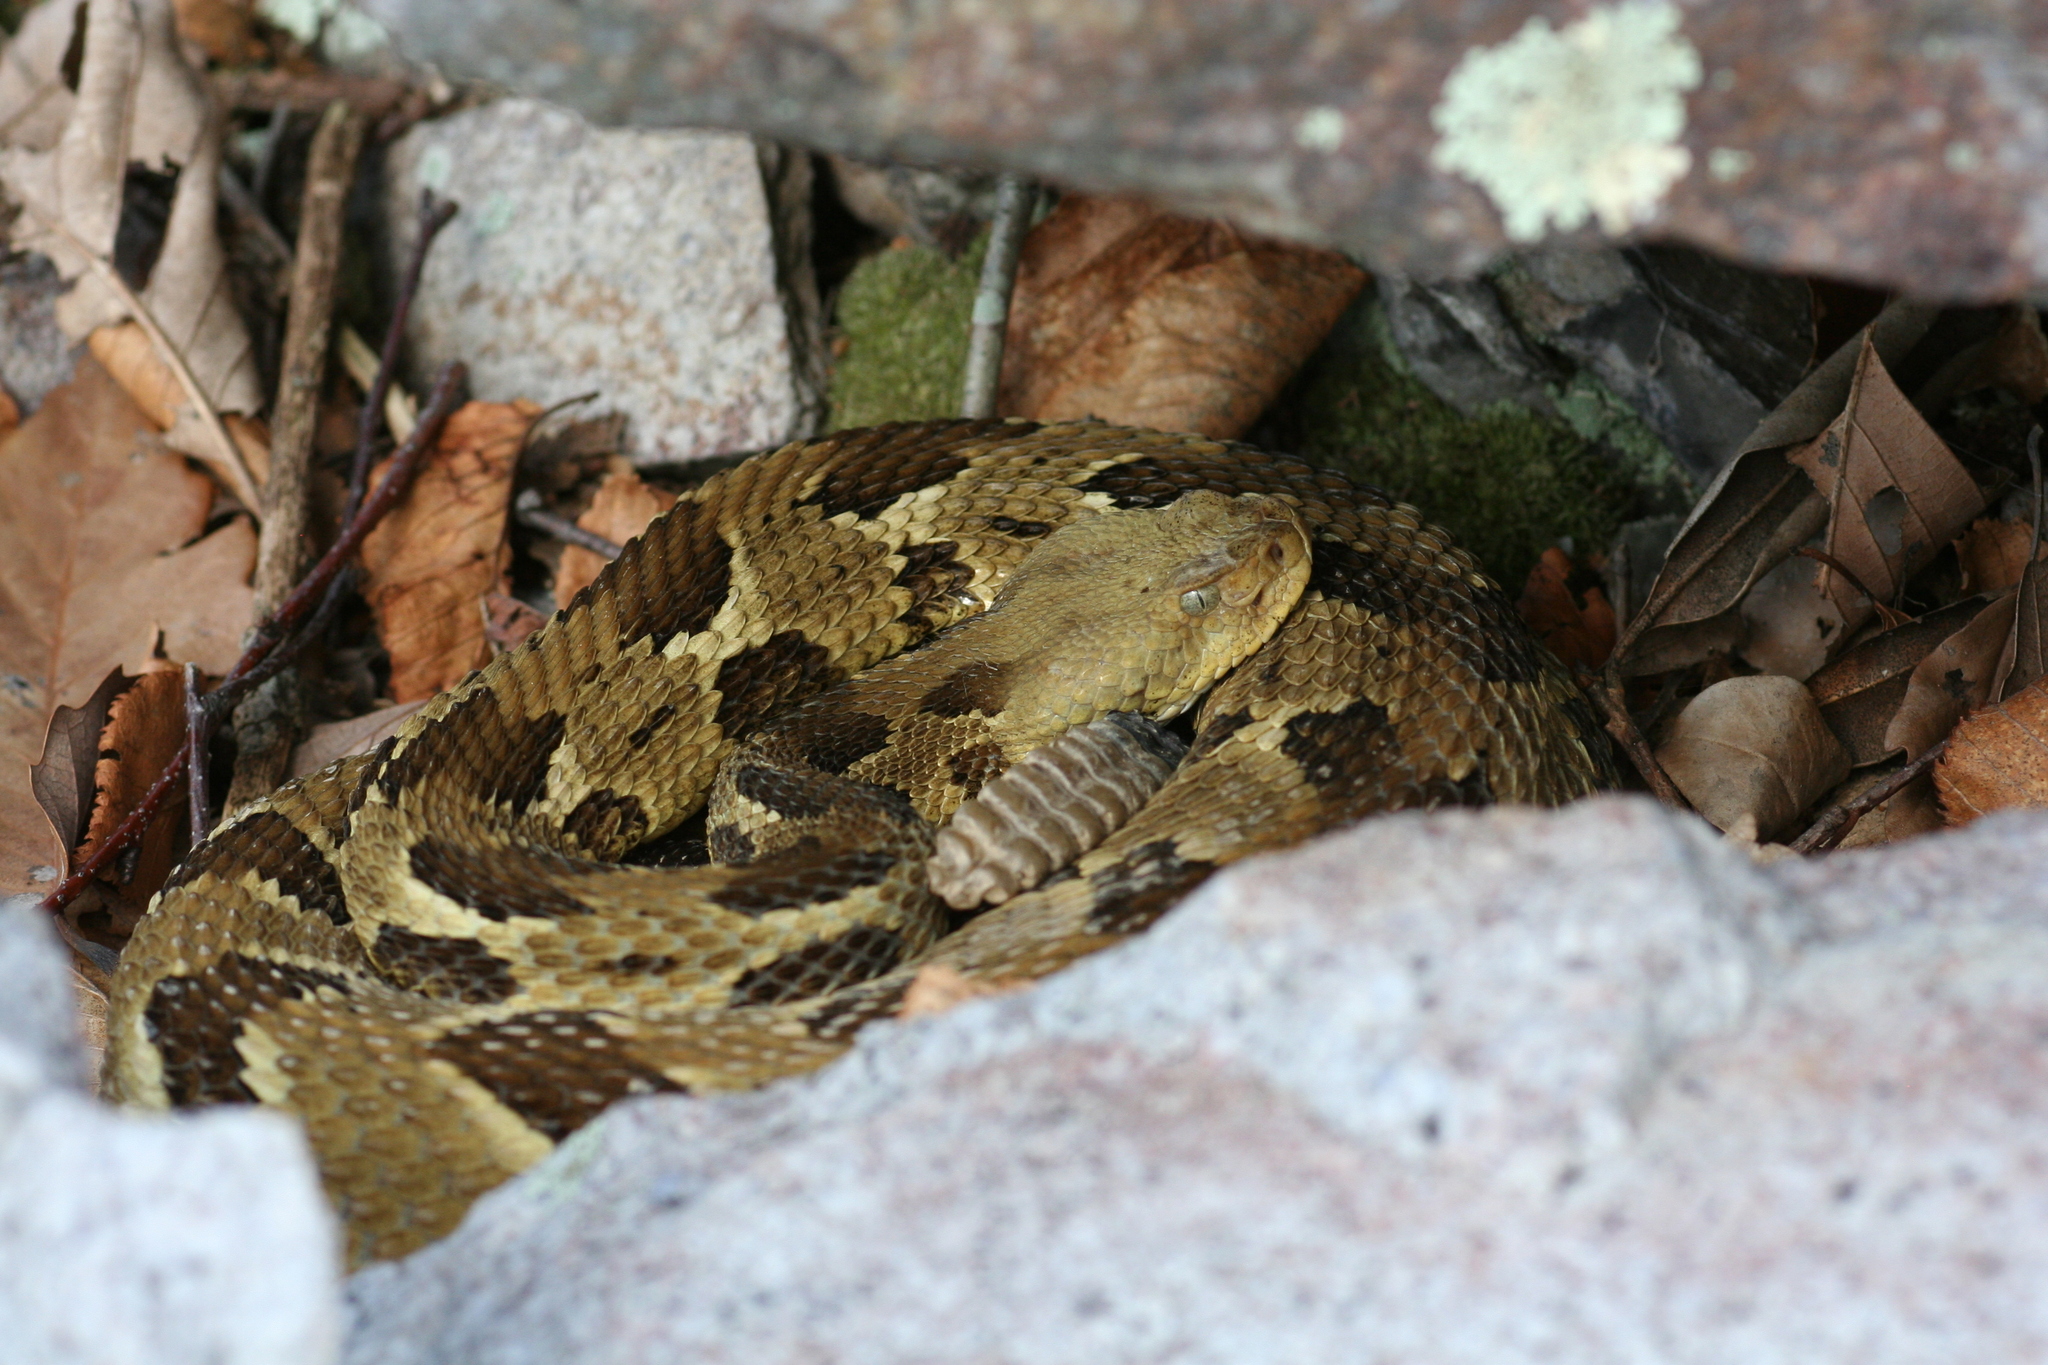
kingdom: Animalia
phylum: Chordata
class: Squamata
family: Viperidae
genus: Crotalus
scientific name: Crotalus horridus
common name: Timber rattlesnake
